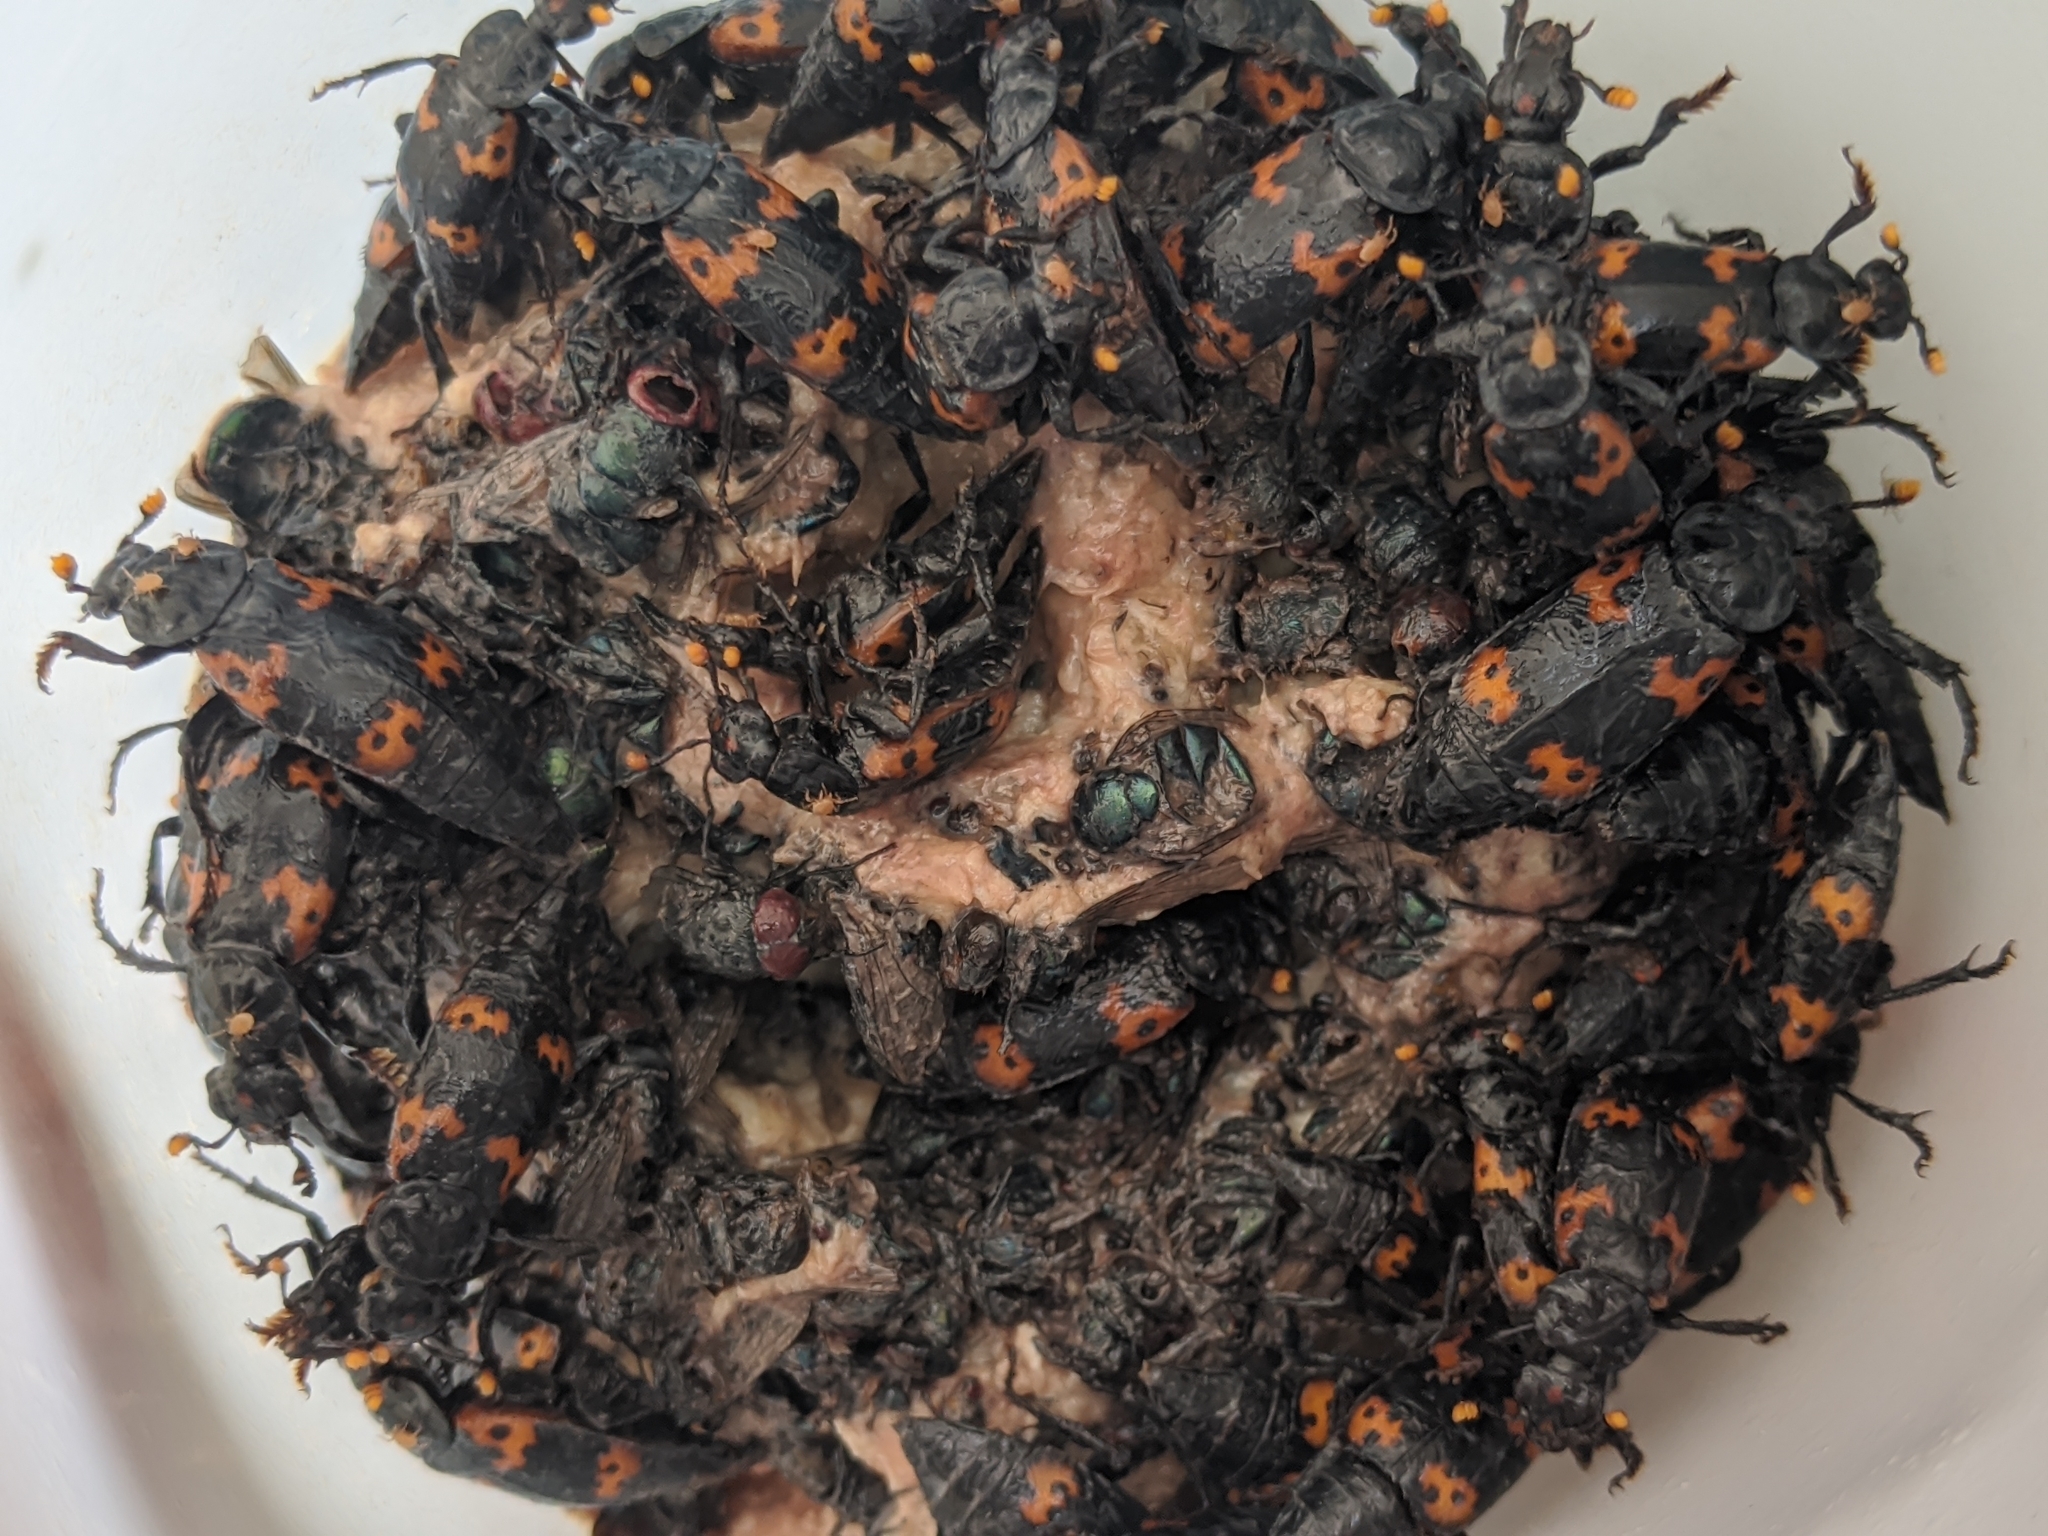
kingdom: Animalia
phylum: Arthropoda
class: Insecta
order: Coleoptera
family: Staphylinidae
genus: Nicrophorus
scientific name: Nicrophorus nepalensis
